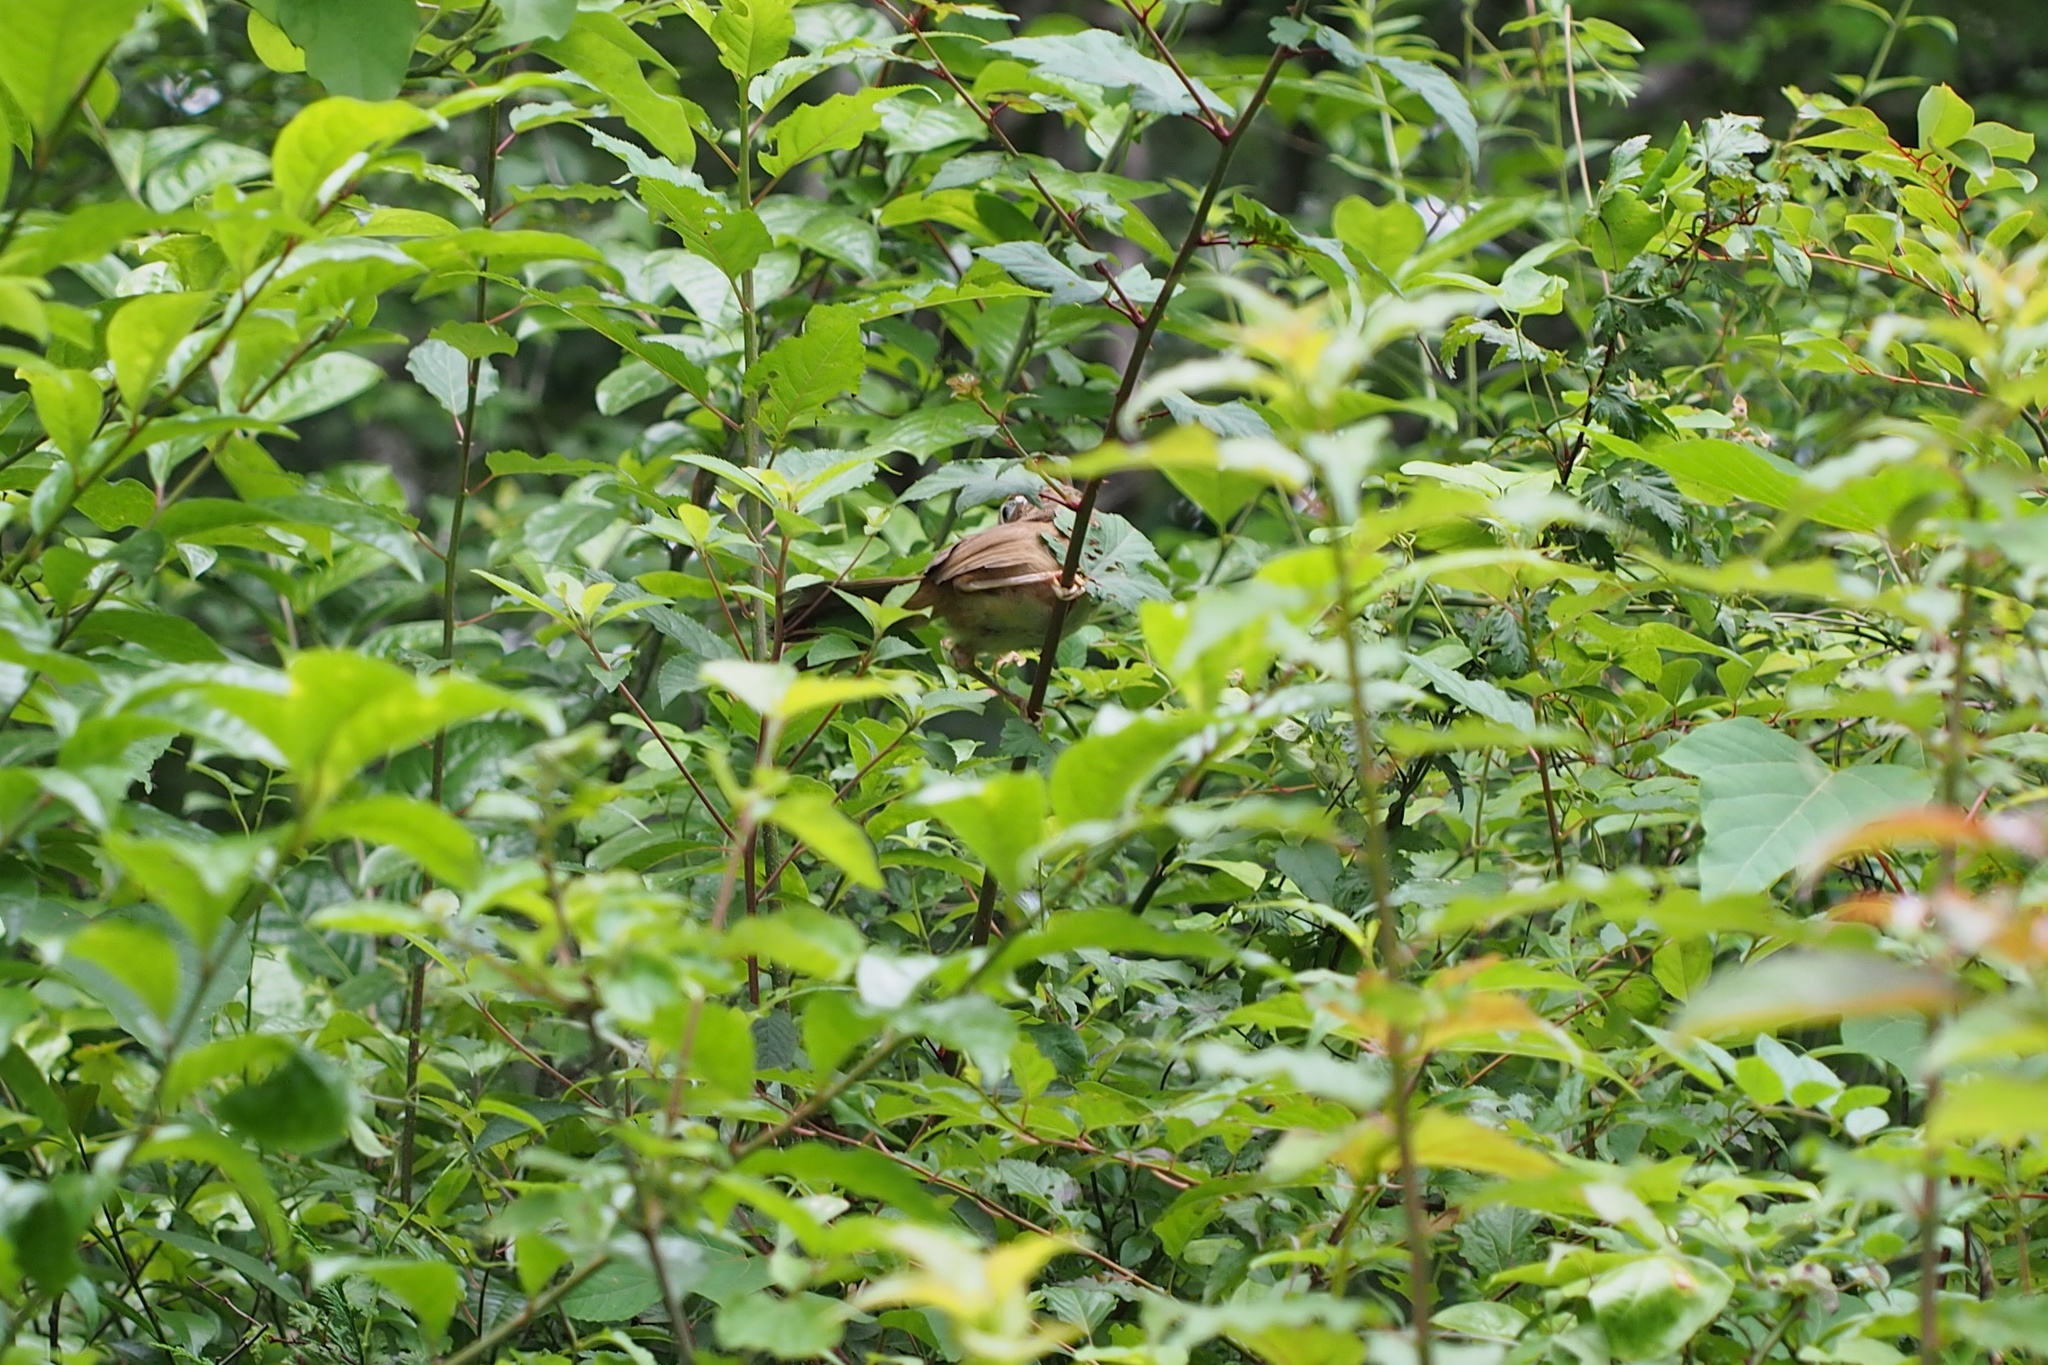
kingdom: Animalia
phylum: Chordata
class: Aves
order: Passeriformes
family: Leiothrichidae
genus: Garrulax
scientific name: Garrulax canorus
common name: Chinese hwamei
